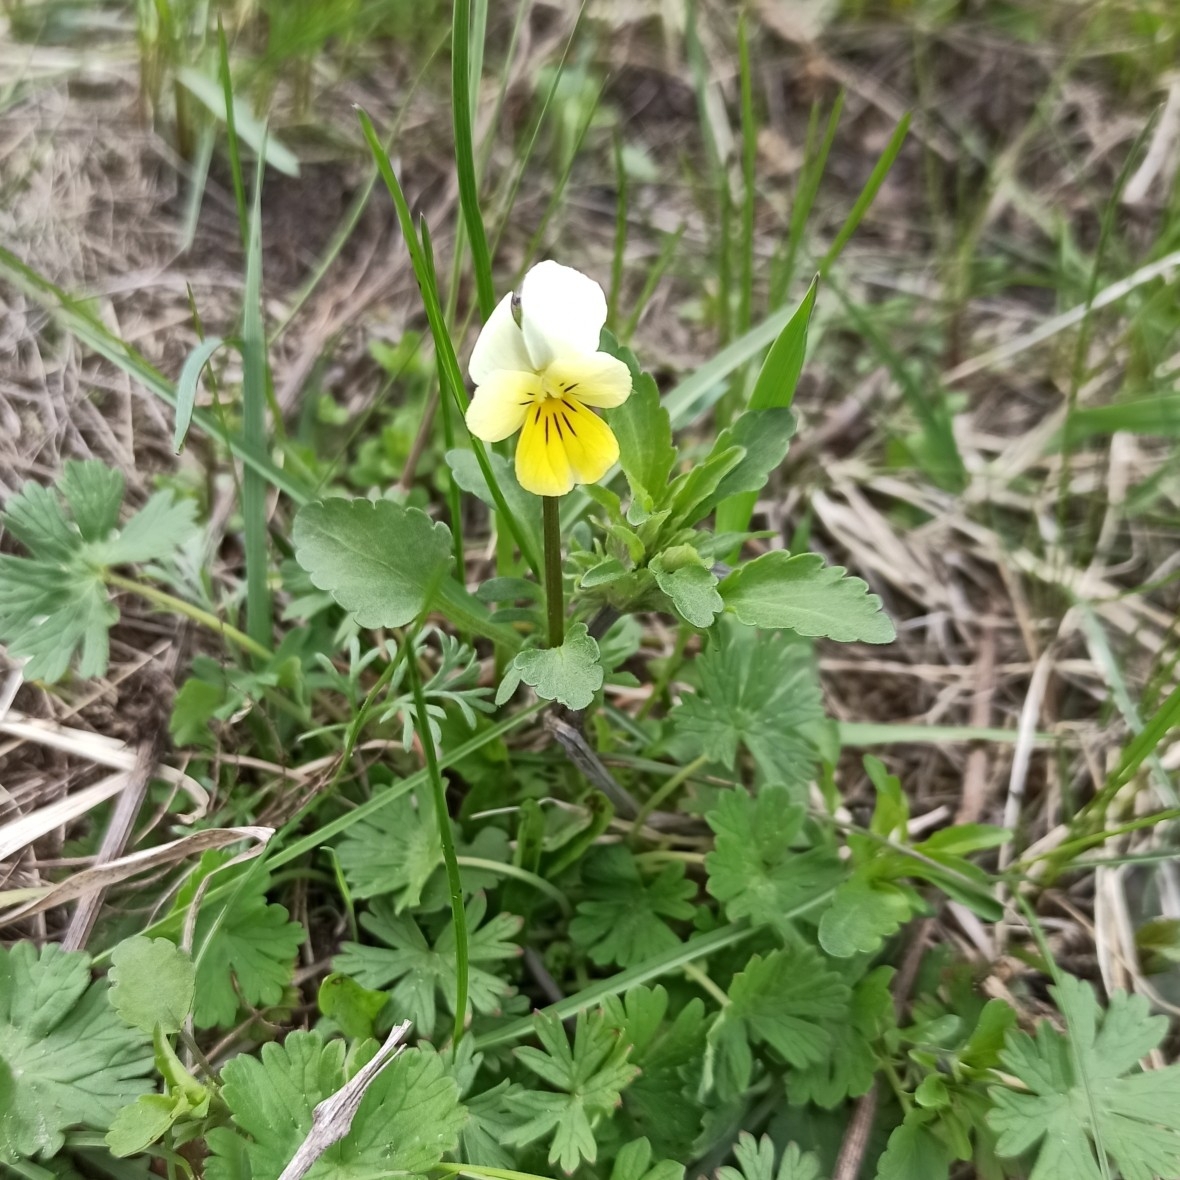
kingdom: Plantae
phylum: Tracheophyta
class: Magnoliopsida
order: Malpighiales
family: Violaceae
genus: Viola
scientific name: Viola arvensis
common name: Field pansy
